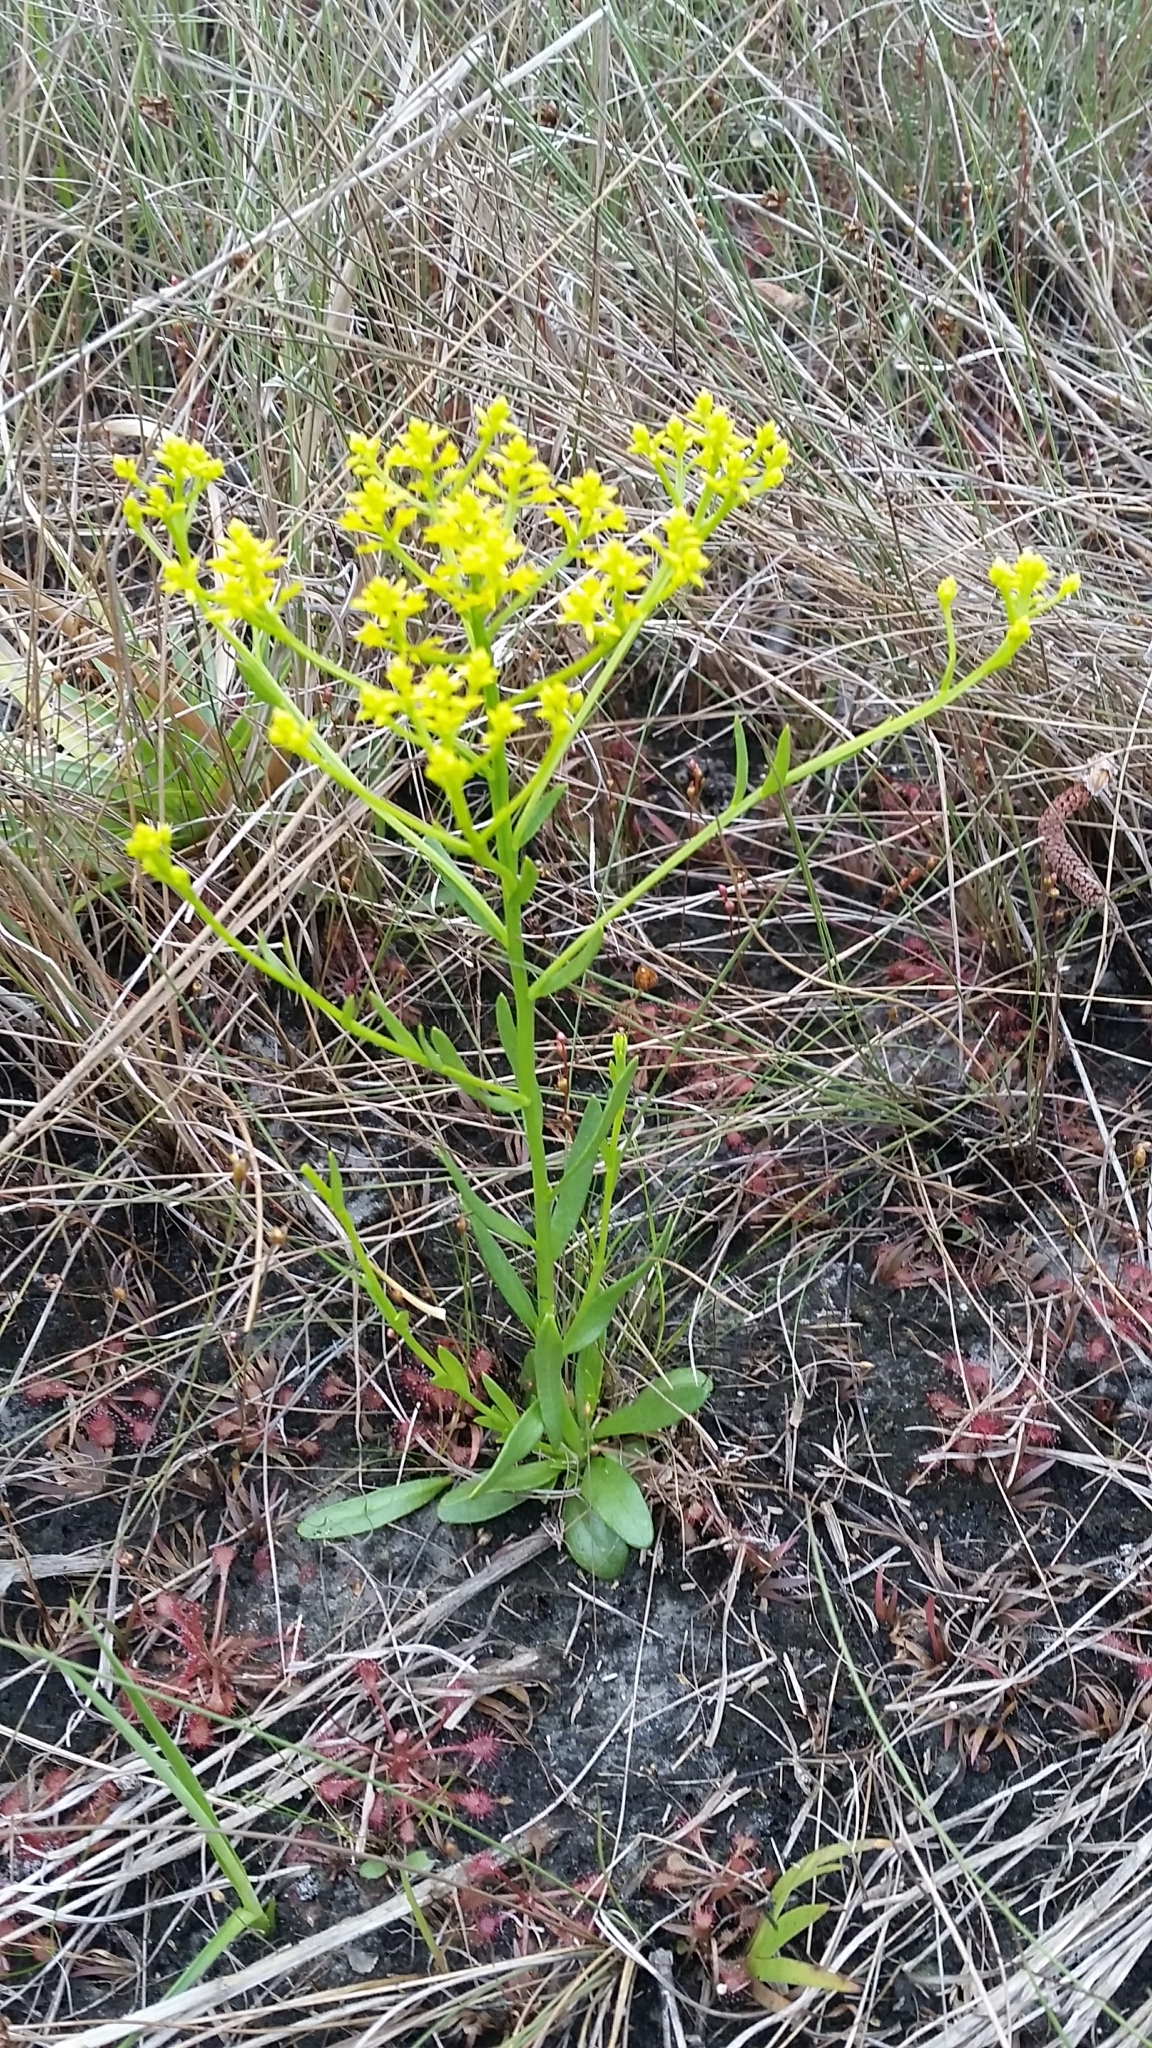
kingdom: Plantae
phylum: Tracheophyta
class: Magnoliopsida
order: Fabales
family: Polygalaceae
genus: Polygala
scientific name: Polygala ramosa
